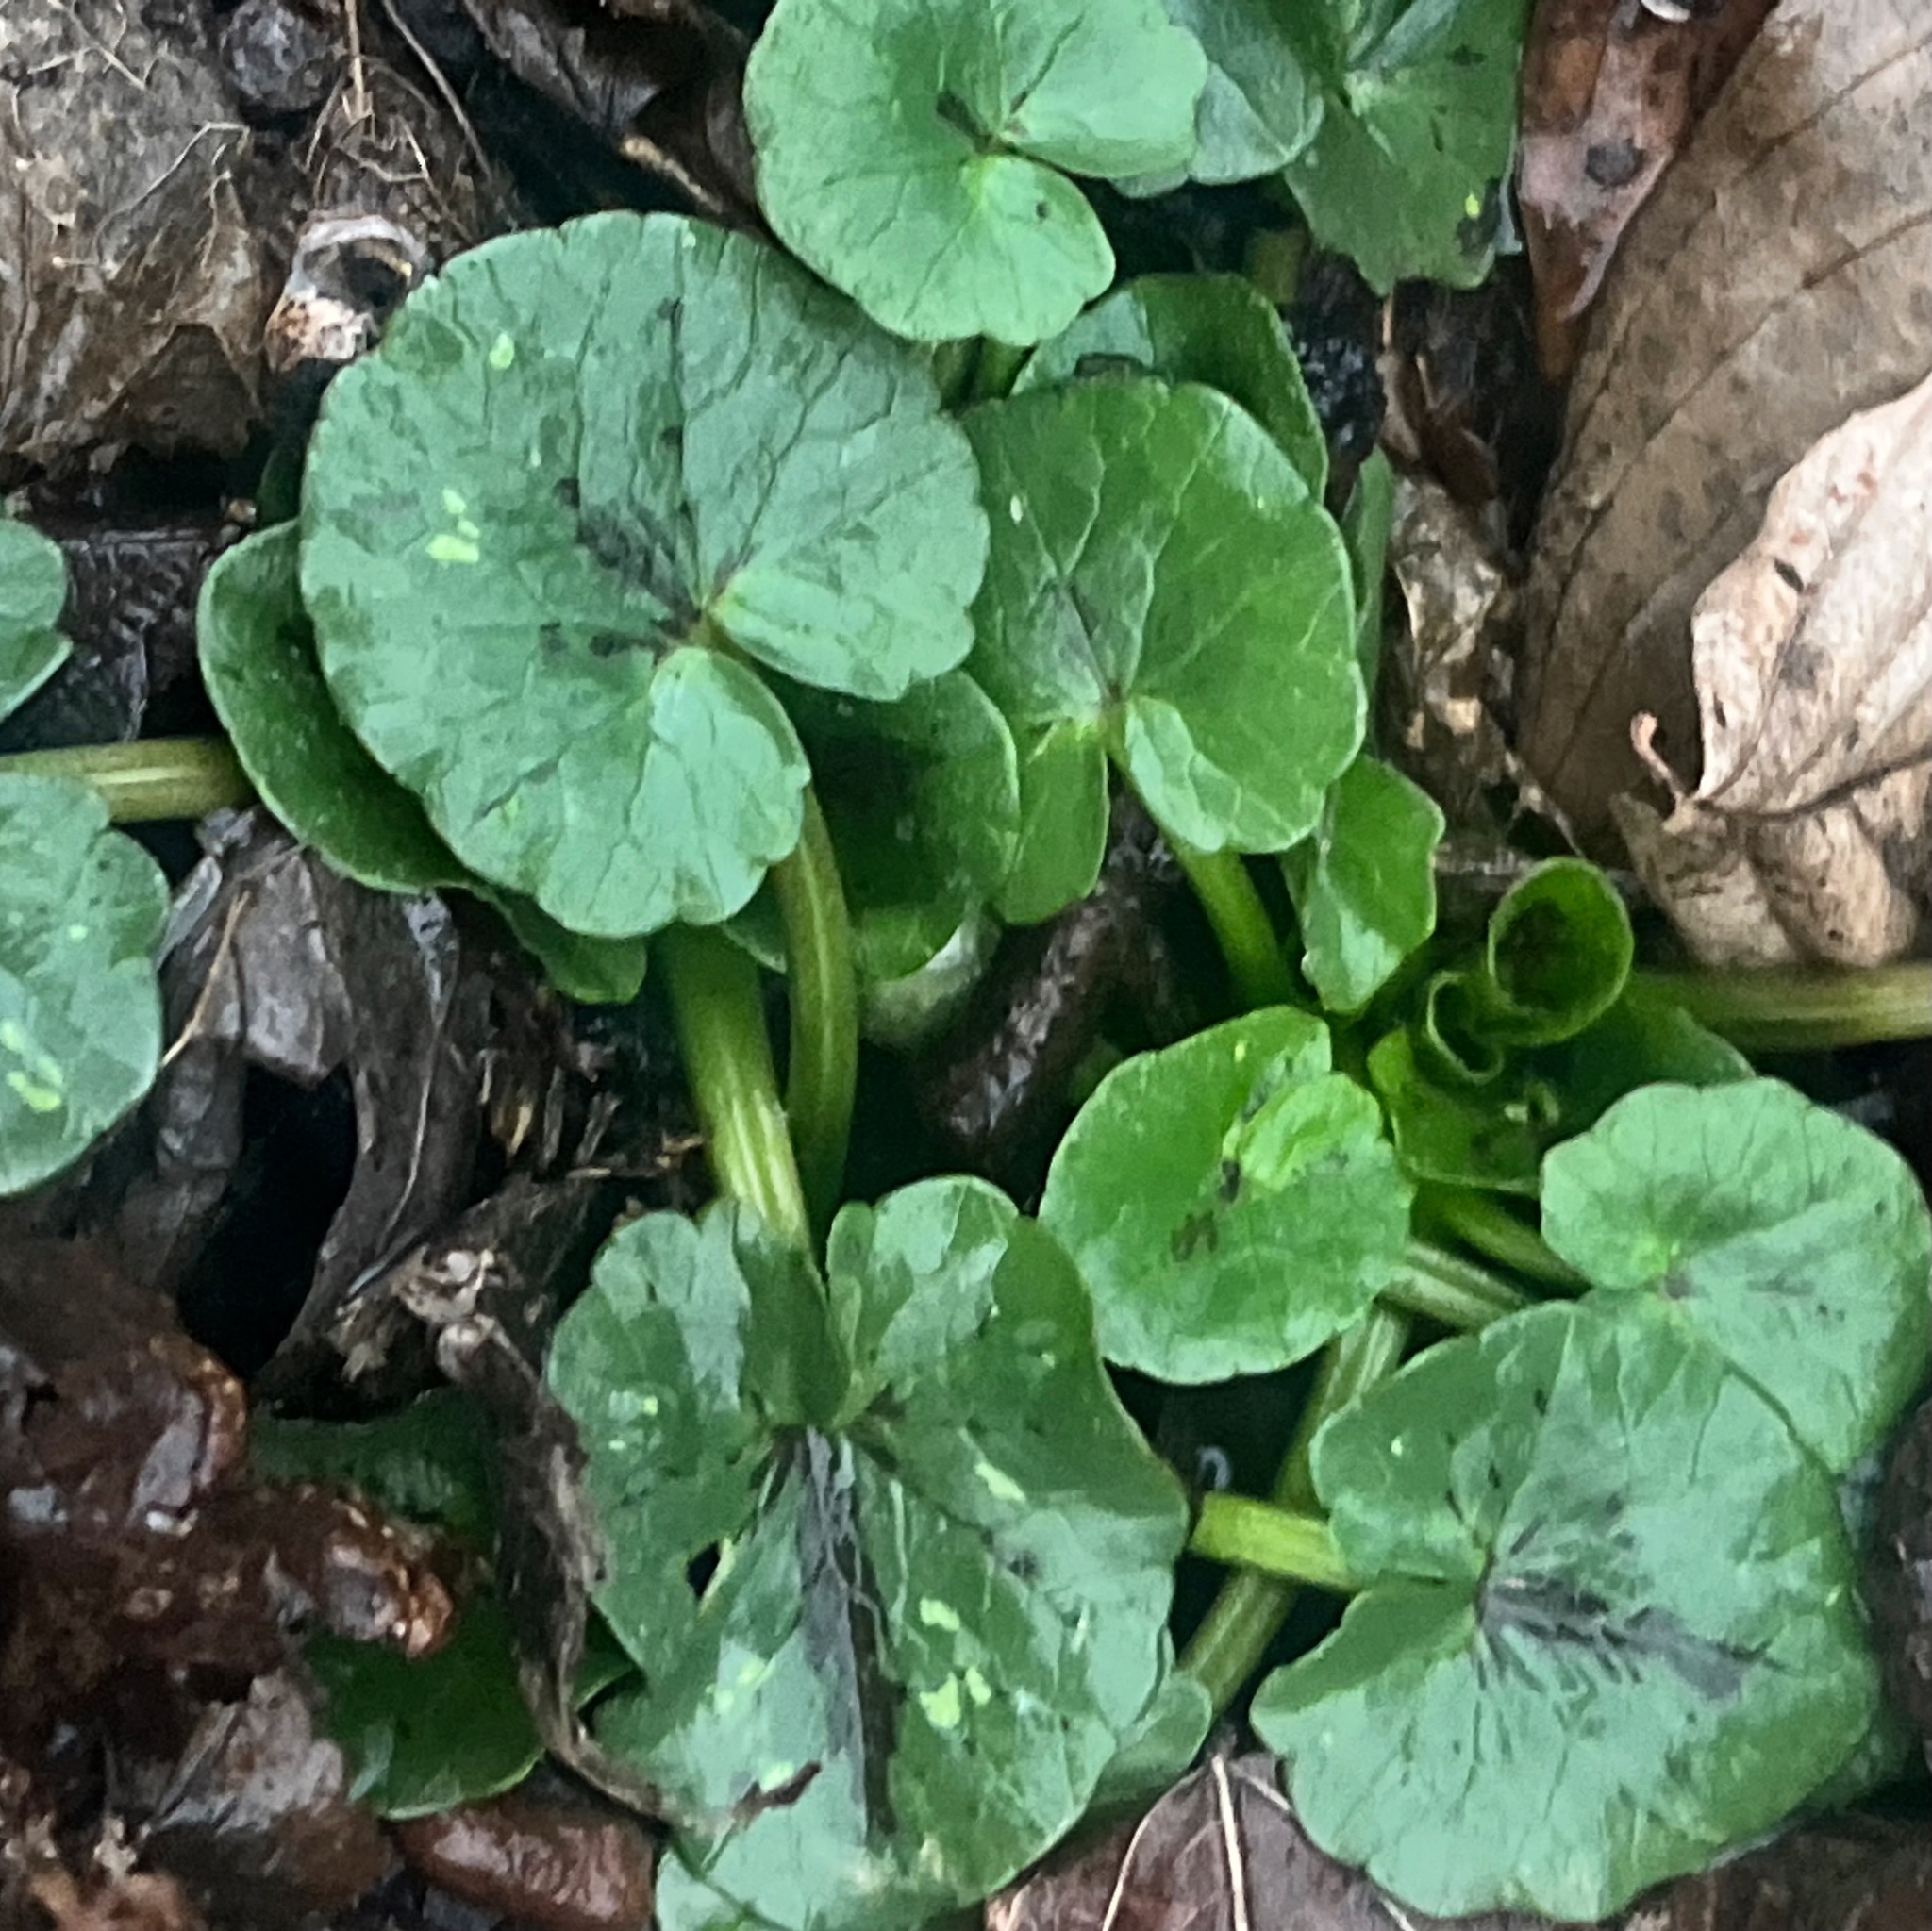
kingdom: Plantae
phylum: Tracheophyta
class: Magnoliopsida
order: Ranunculales
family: Ranunculaceae
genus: Ficaria
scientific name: Ficaria verna
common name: Lesser celandine
